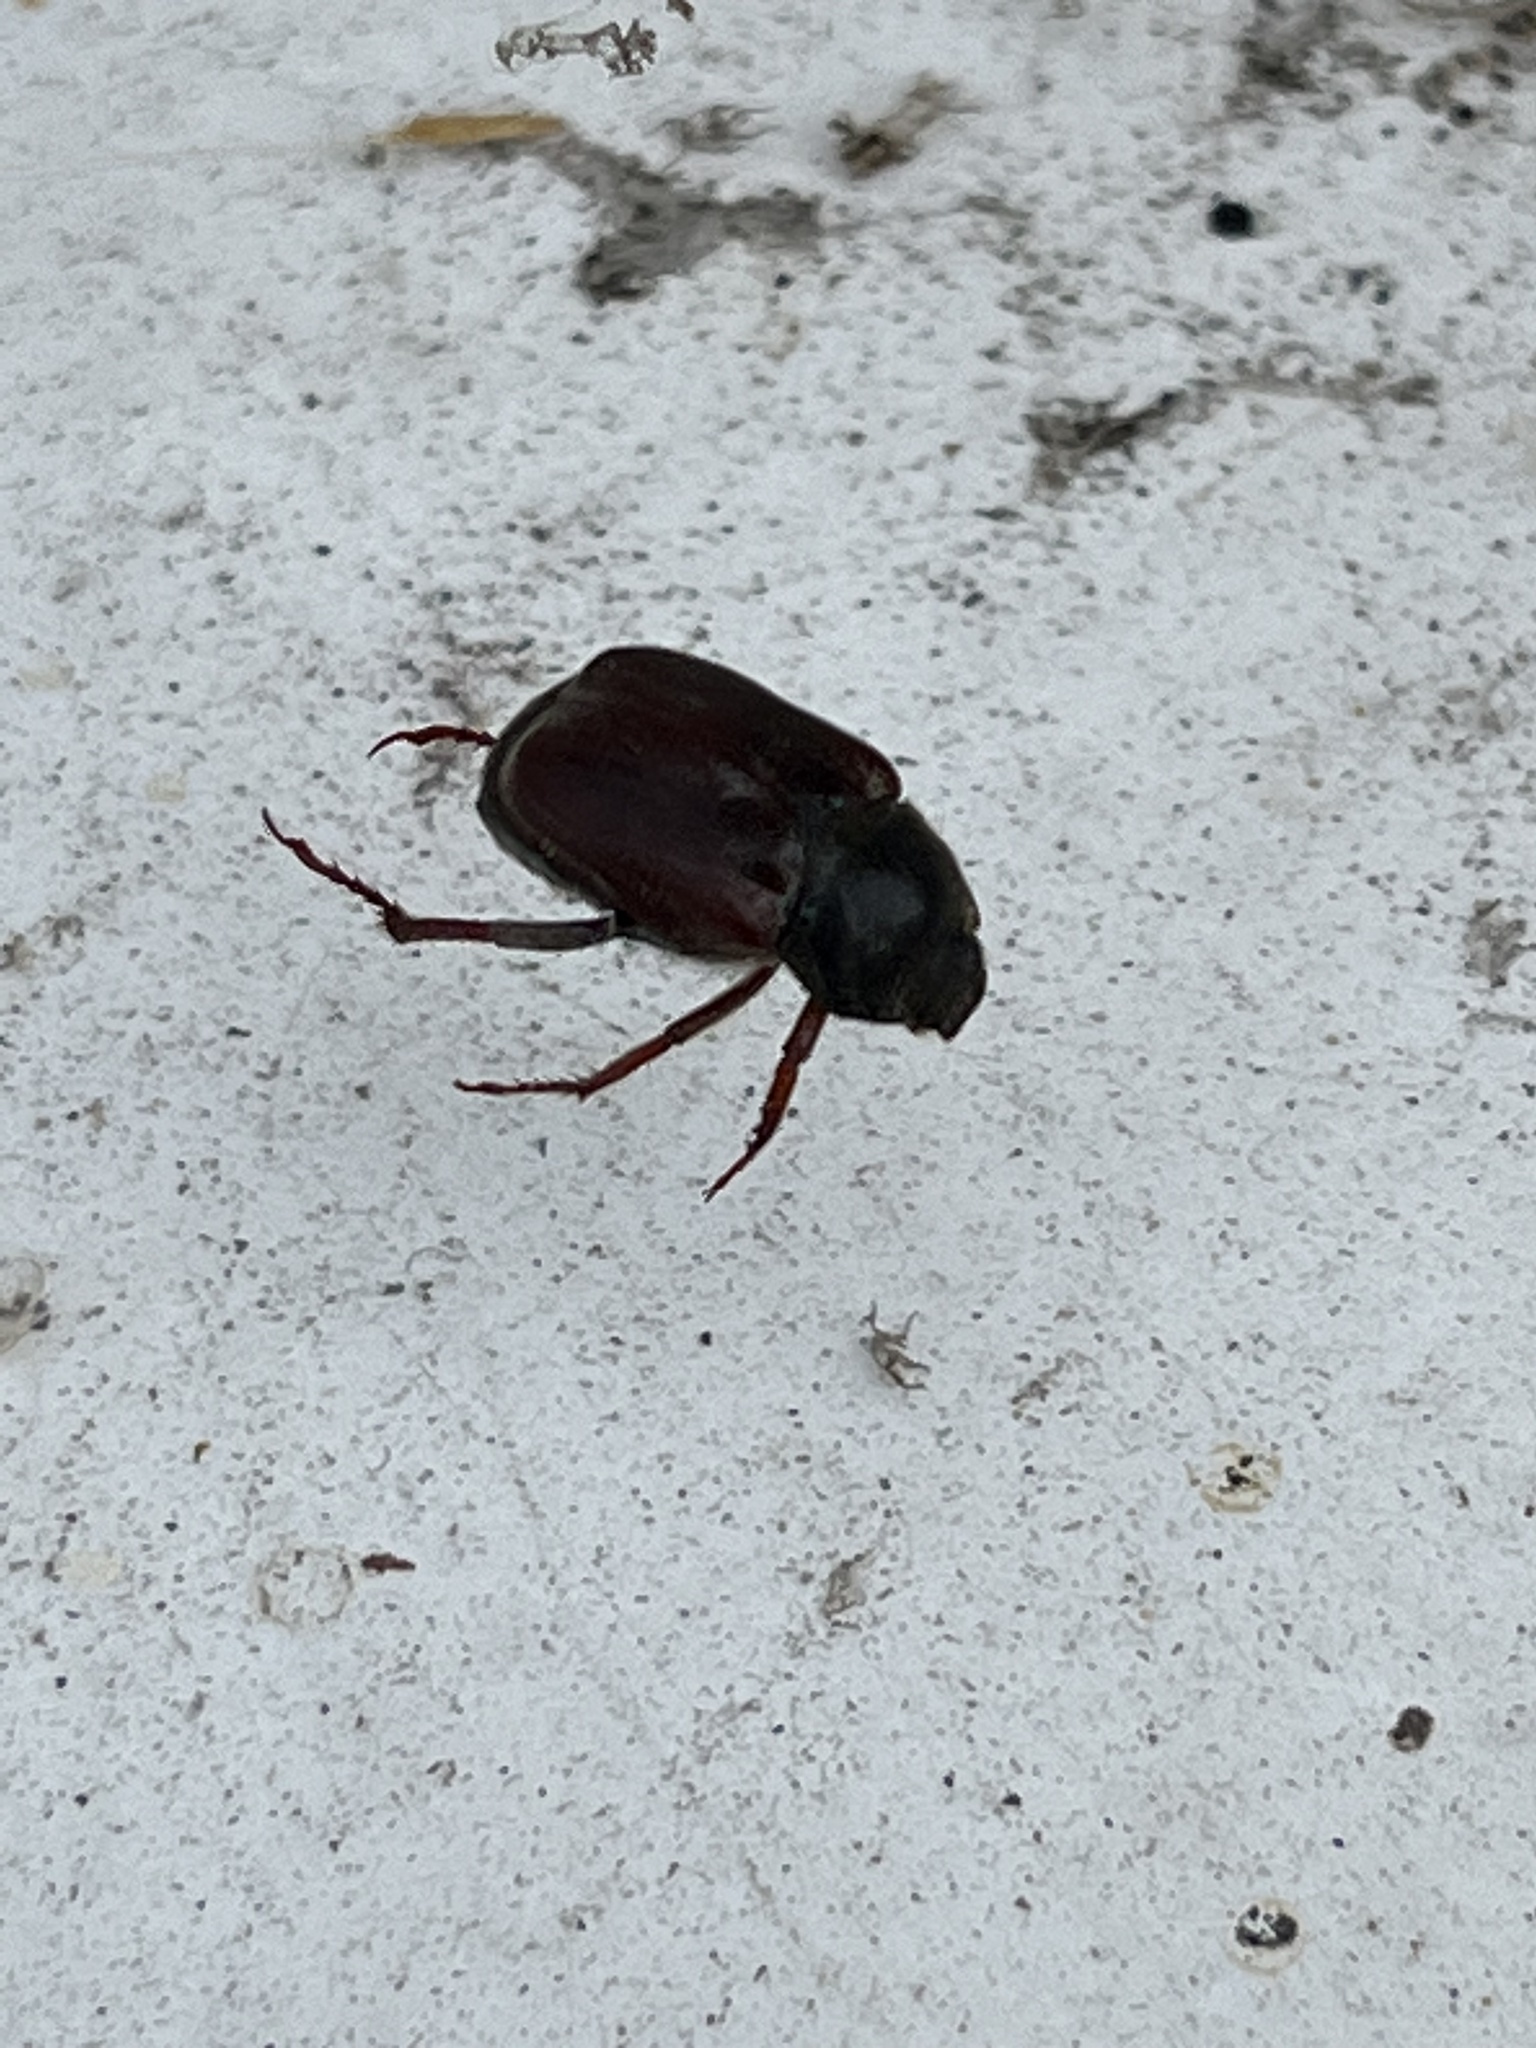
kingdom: Animalia
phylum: Arthropoda
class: Insecta
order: Coleoptera
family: Scarabaeidae
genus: Hoplia
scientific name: Hoplia philanthus
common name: Welsh chafer
